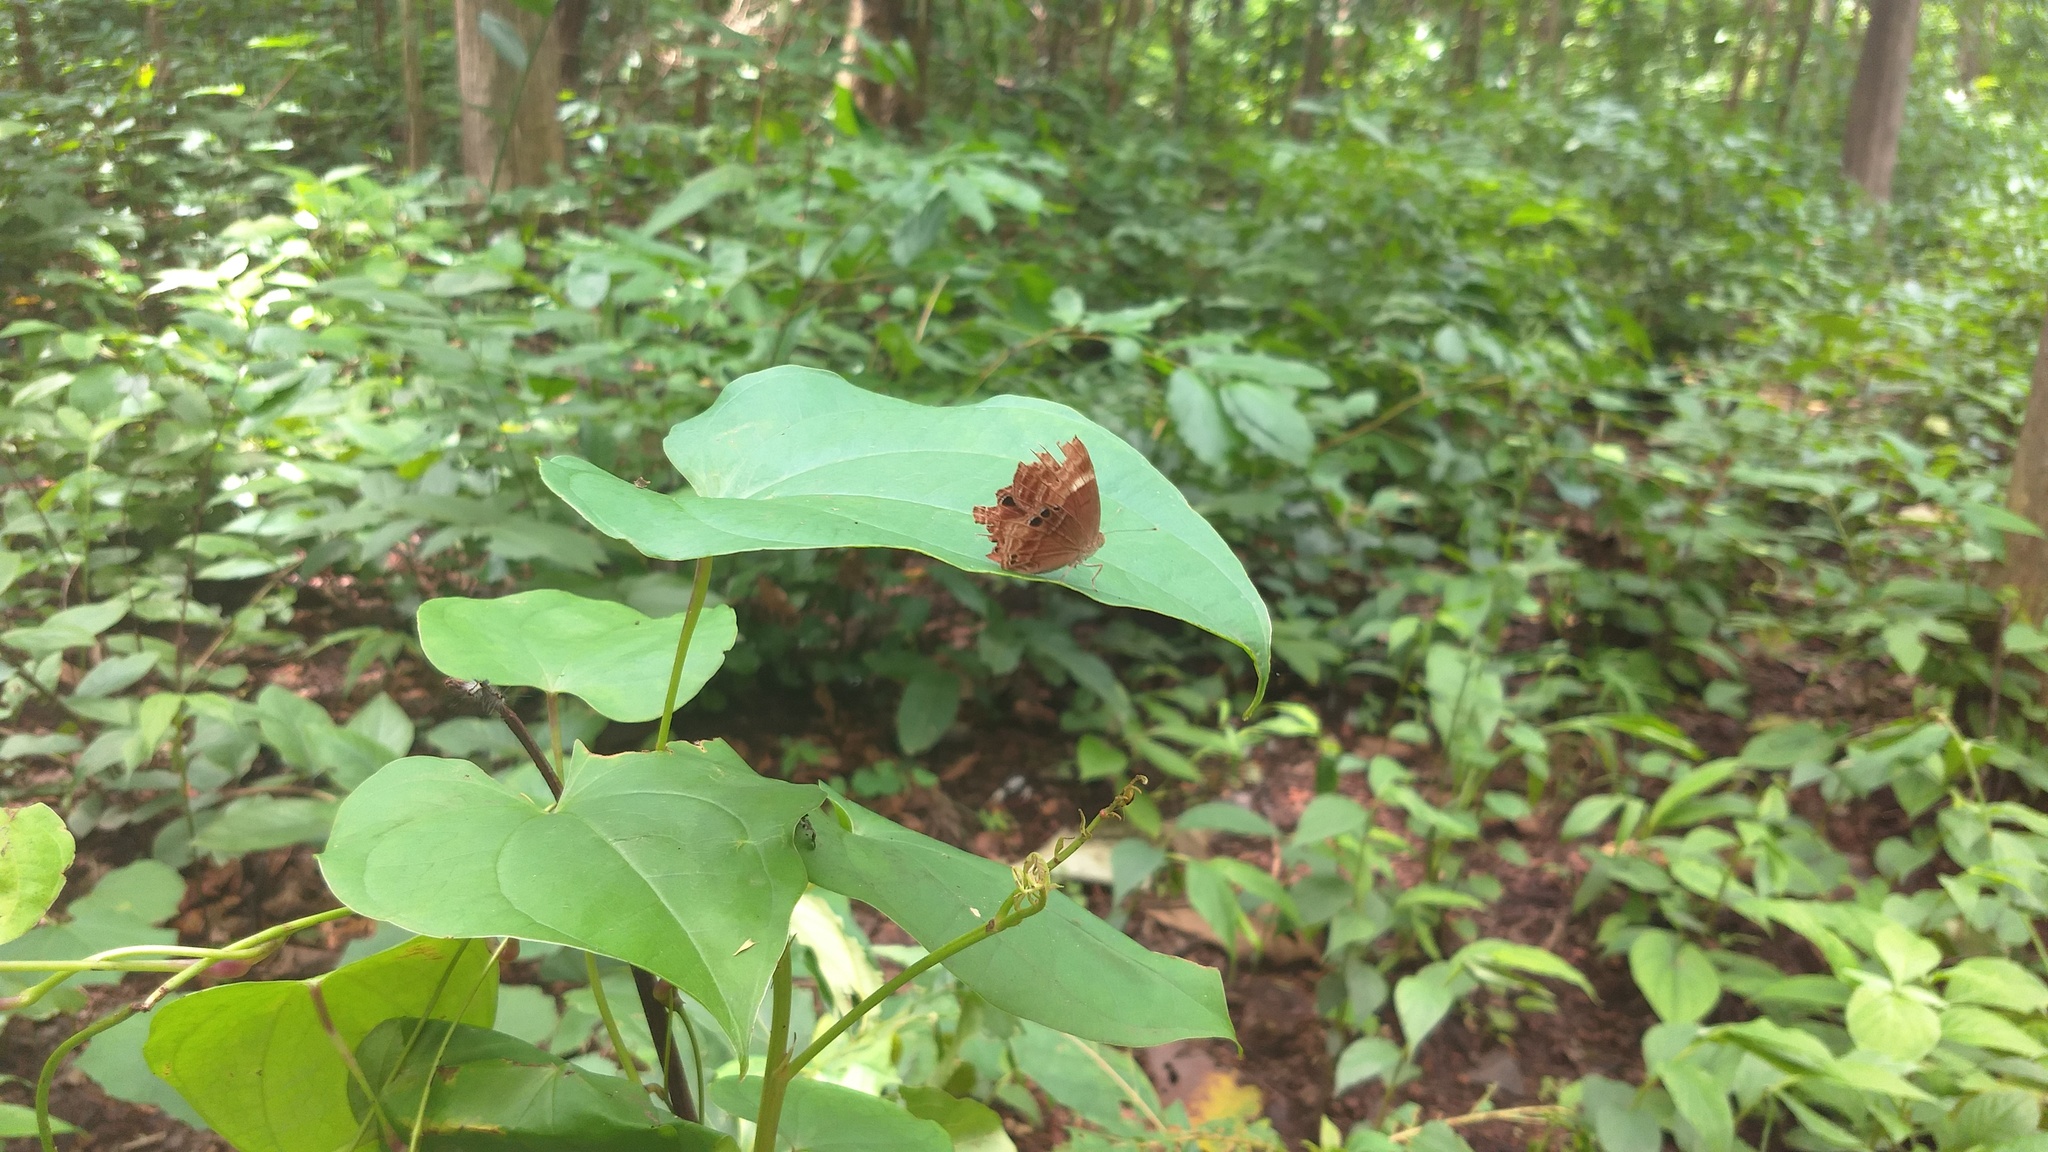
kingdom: Animalia
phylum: Arthropoda
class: Insecta
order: Lepidoptera
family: Lycaenidae
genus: Abisara
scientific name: Abisara echeria
